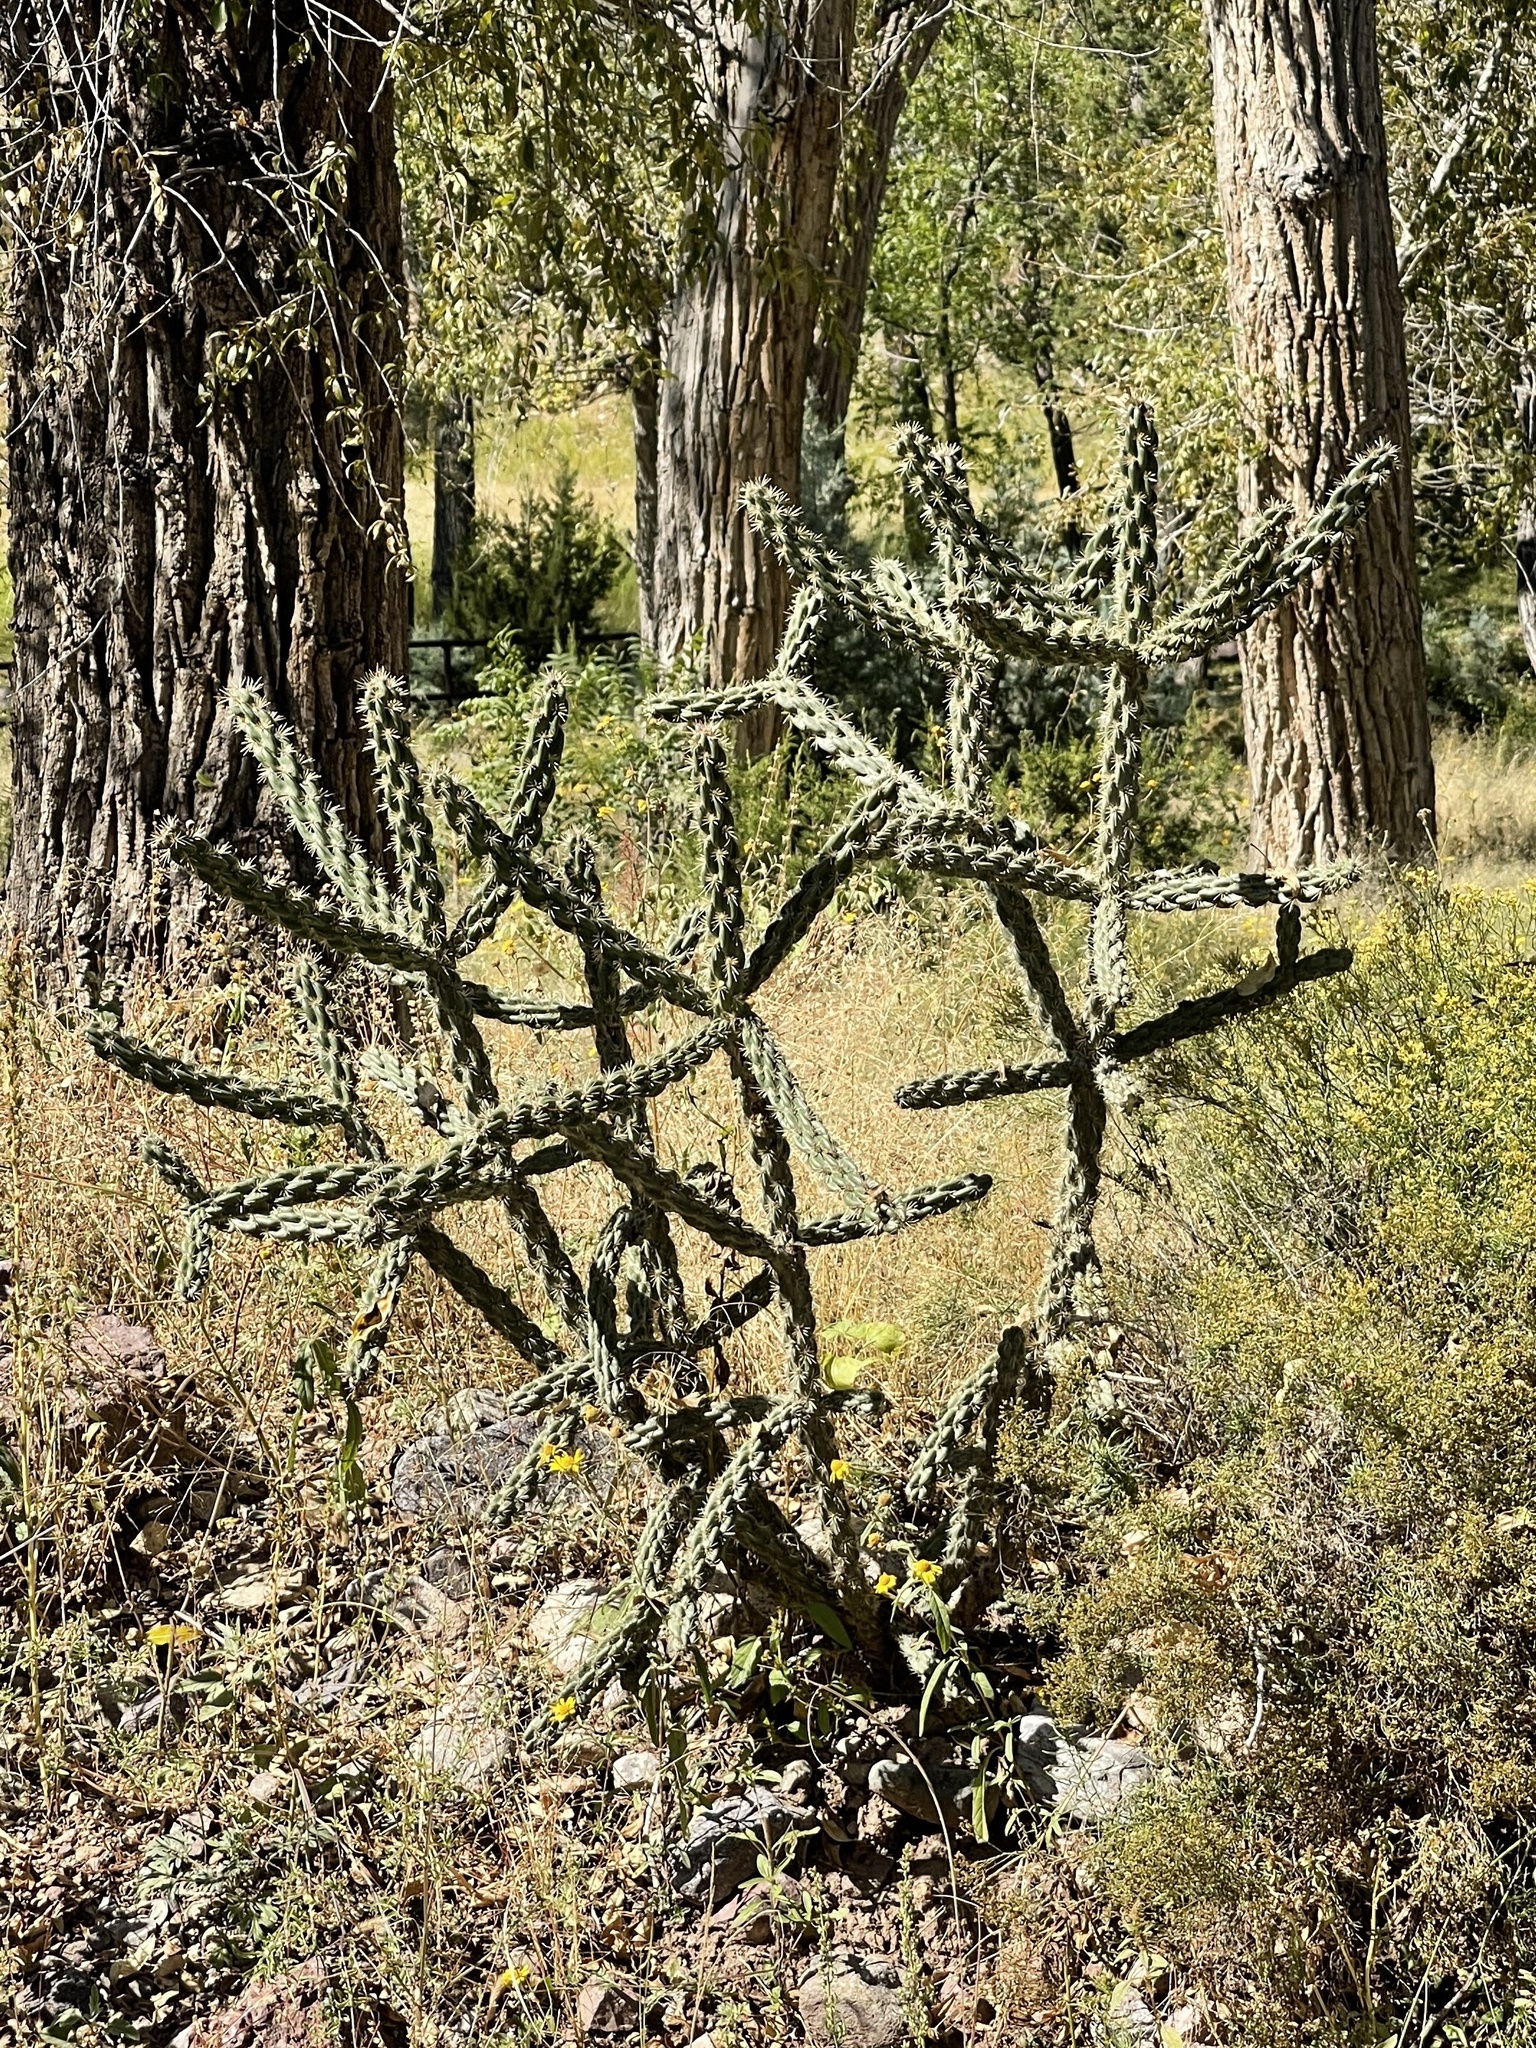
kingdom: Plantae
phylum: Tracheophyta
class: Magnoliopsida
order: Caryophyllales
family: Cactaceae
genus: Cylindropuntia
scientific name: Cylindropuntia imbricata
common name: Candelabrum cactus
